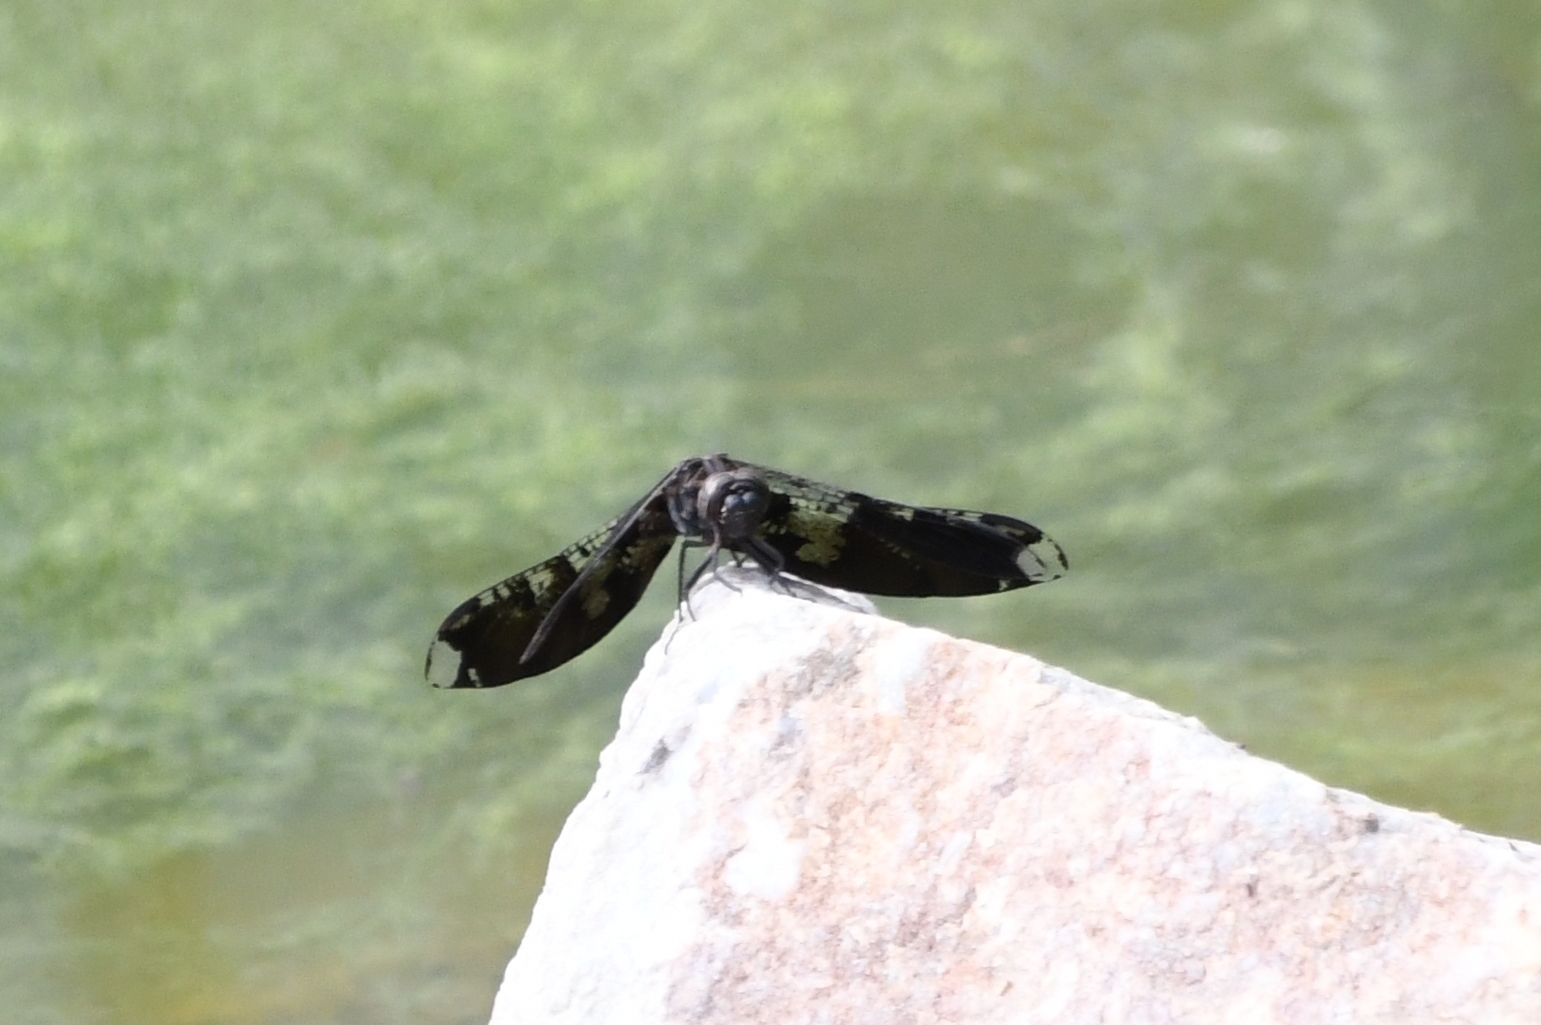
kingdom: Animalia
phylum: Arthropoda
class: Insecta
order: Odonata
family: Libellulidae
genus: Pseudoleon
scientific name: Pseudoleon superbus
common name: Filigree skimmer
